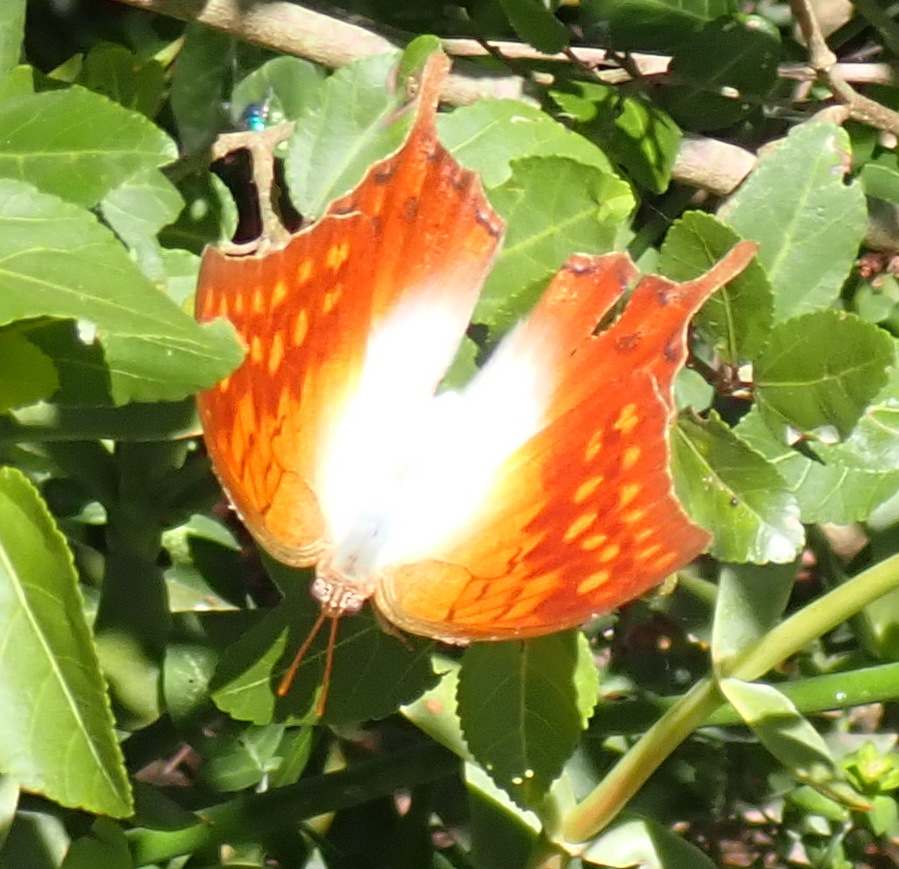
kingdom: Animalia
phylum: Arthropoda
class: Insecta
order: Lepidoptera
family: Nymphalidae
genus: Charaxes
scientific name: Charaxes varanes
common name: Common pearl charaxes
